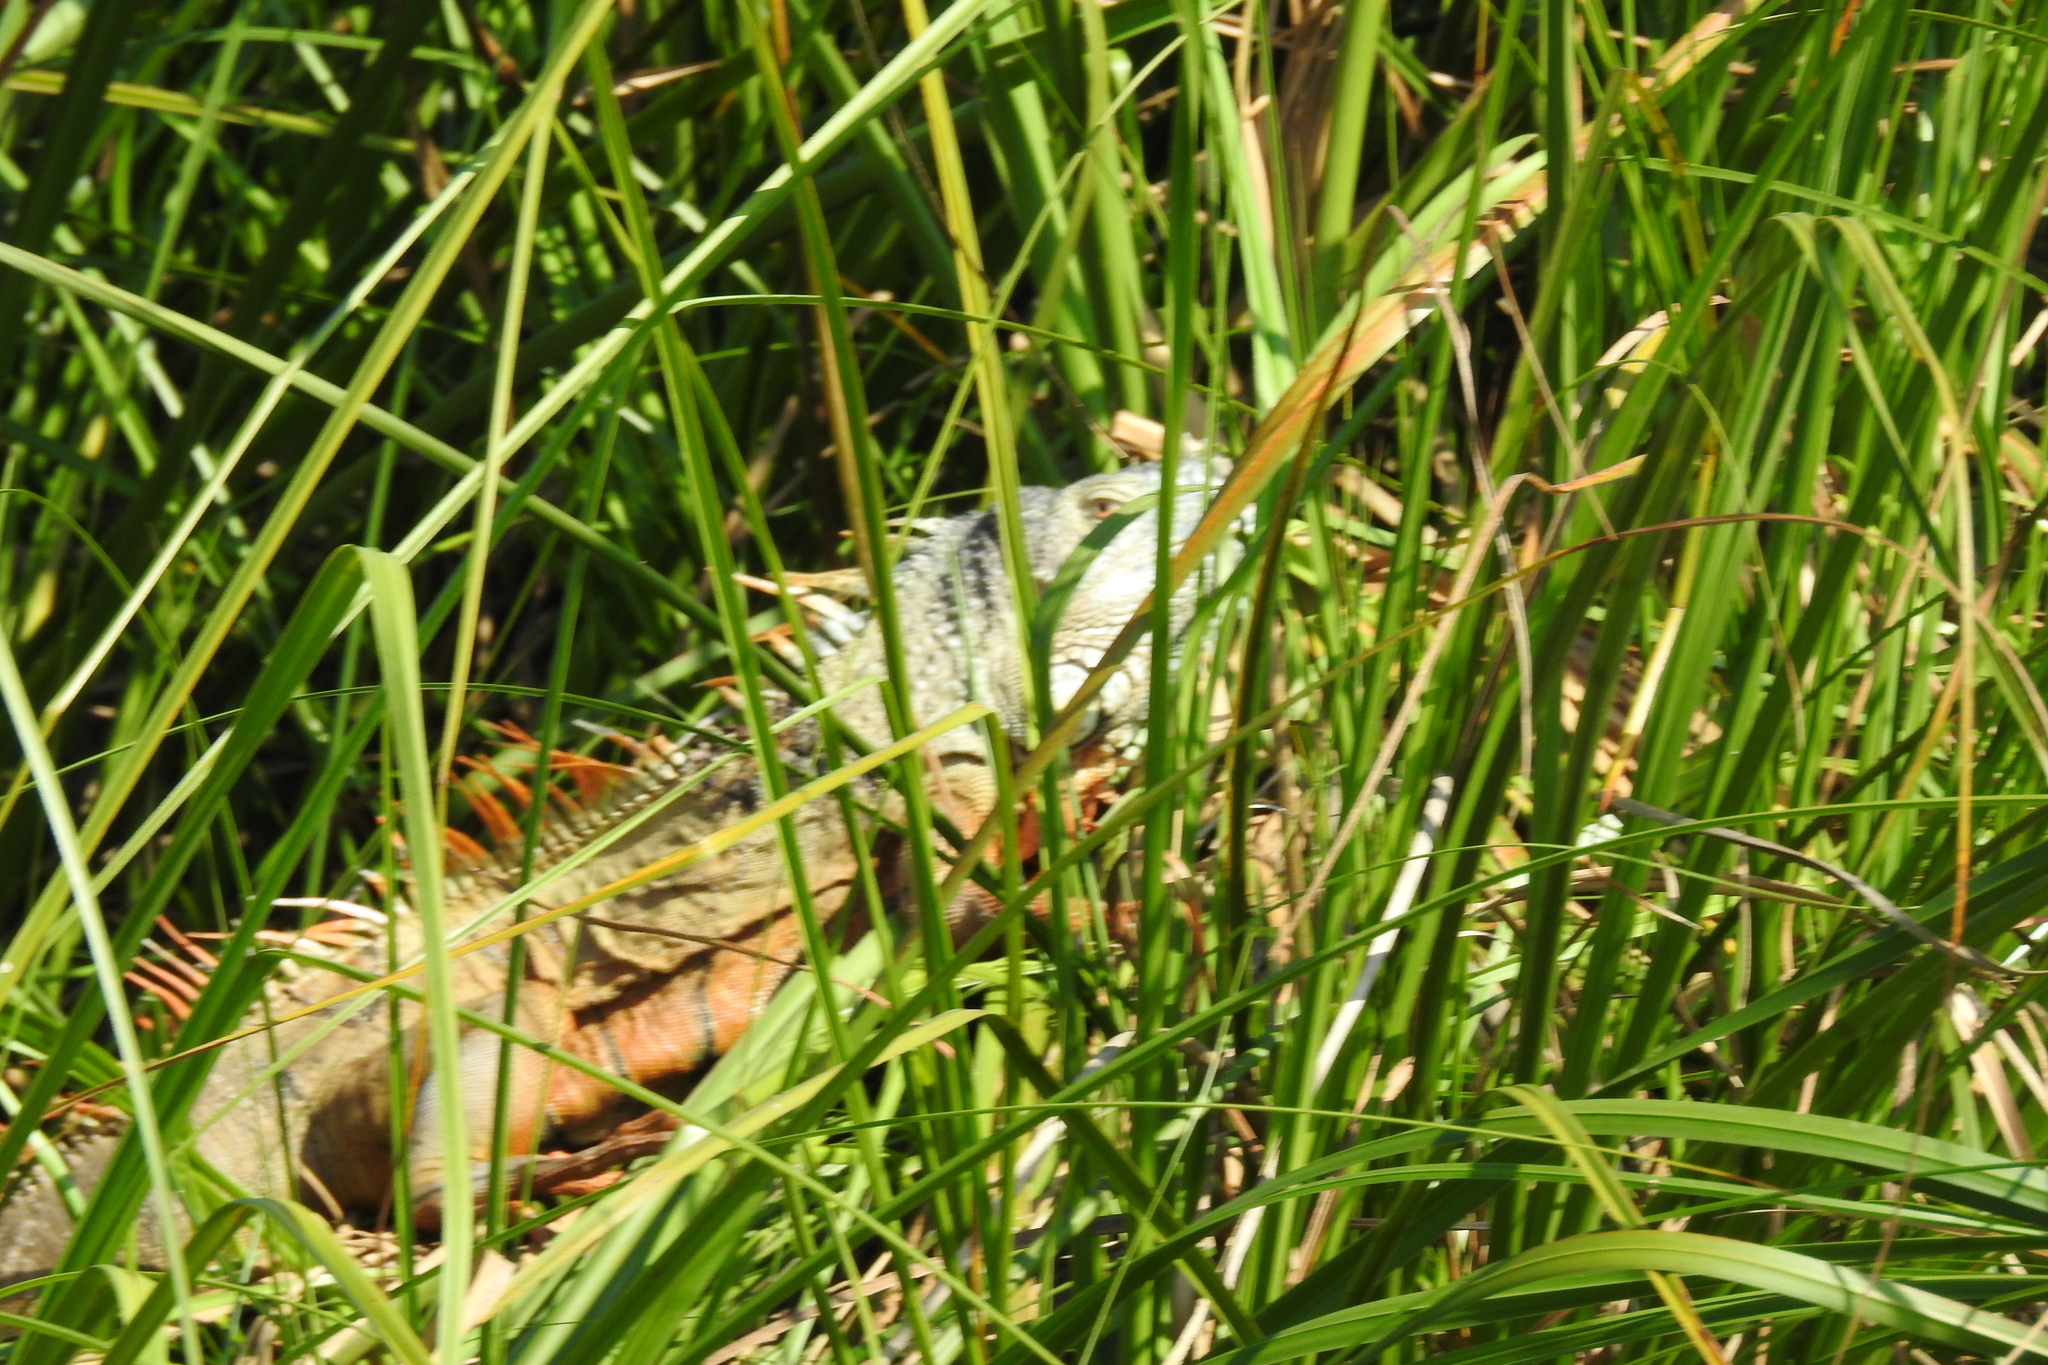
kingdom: Animalia
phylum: Chordata
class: Squamata
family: Iguanidae
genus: Iguana
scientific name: Iguana iguana
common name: Green iguana
